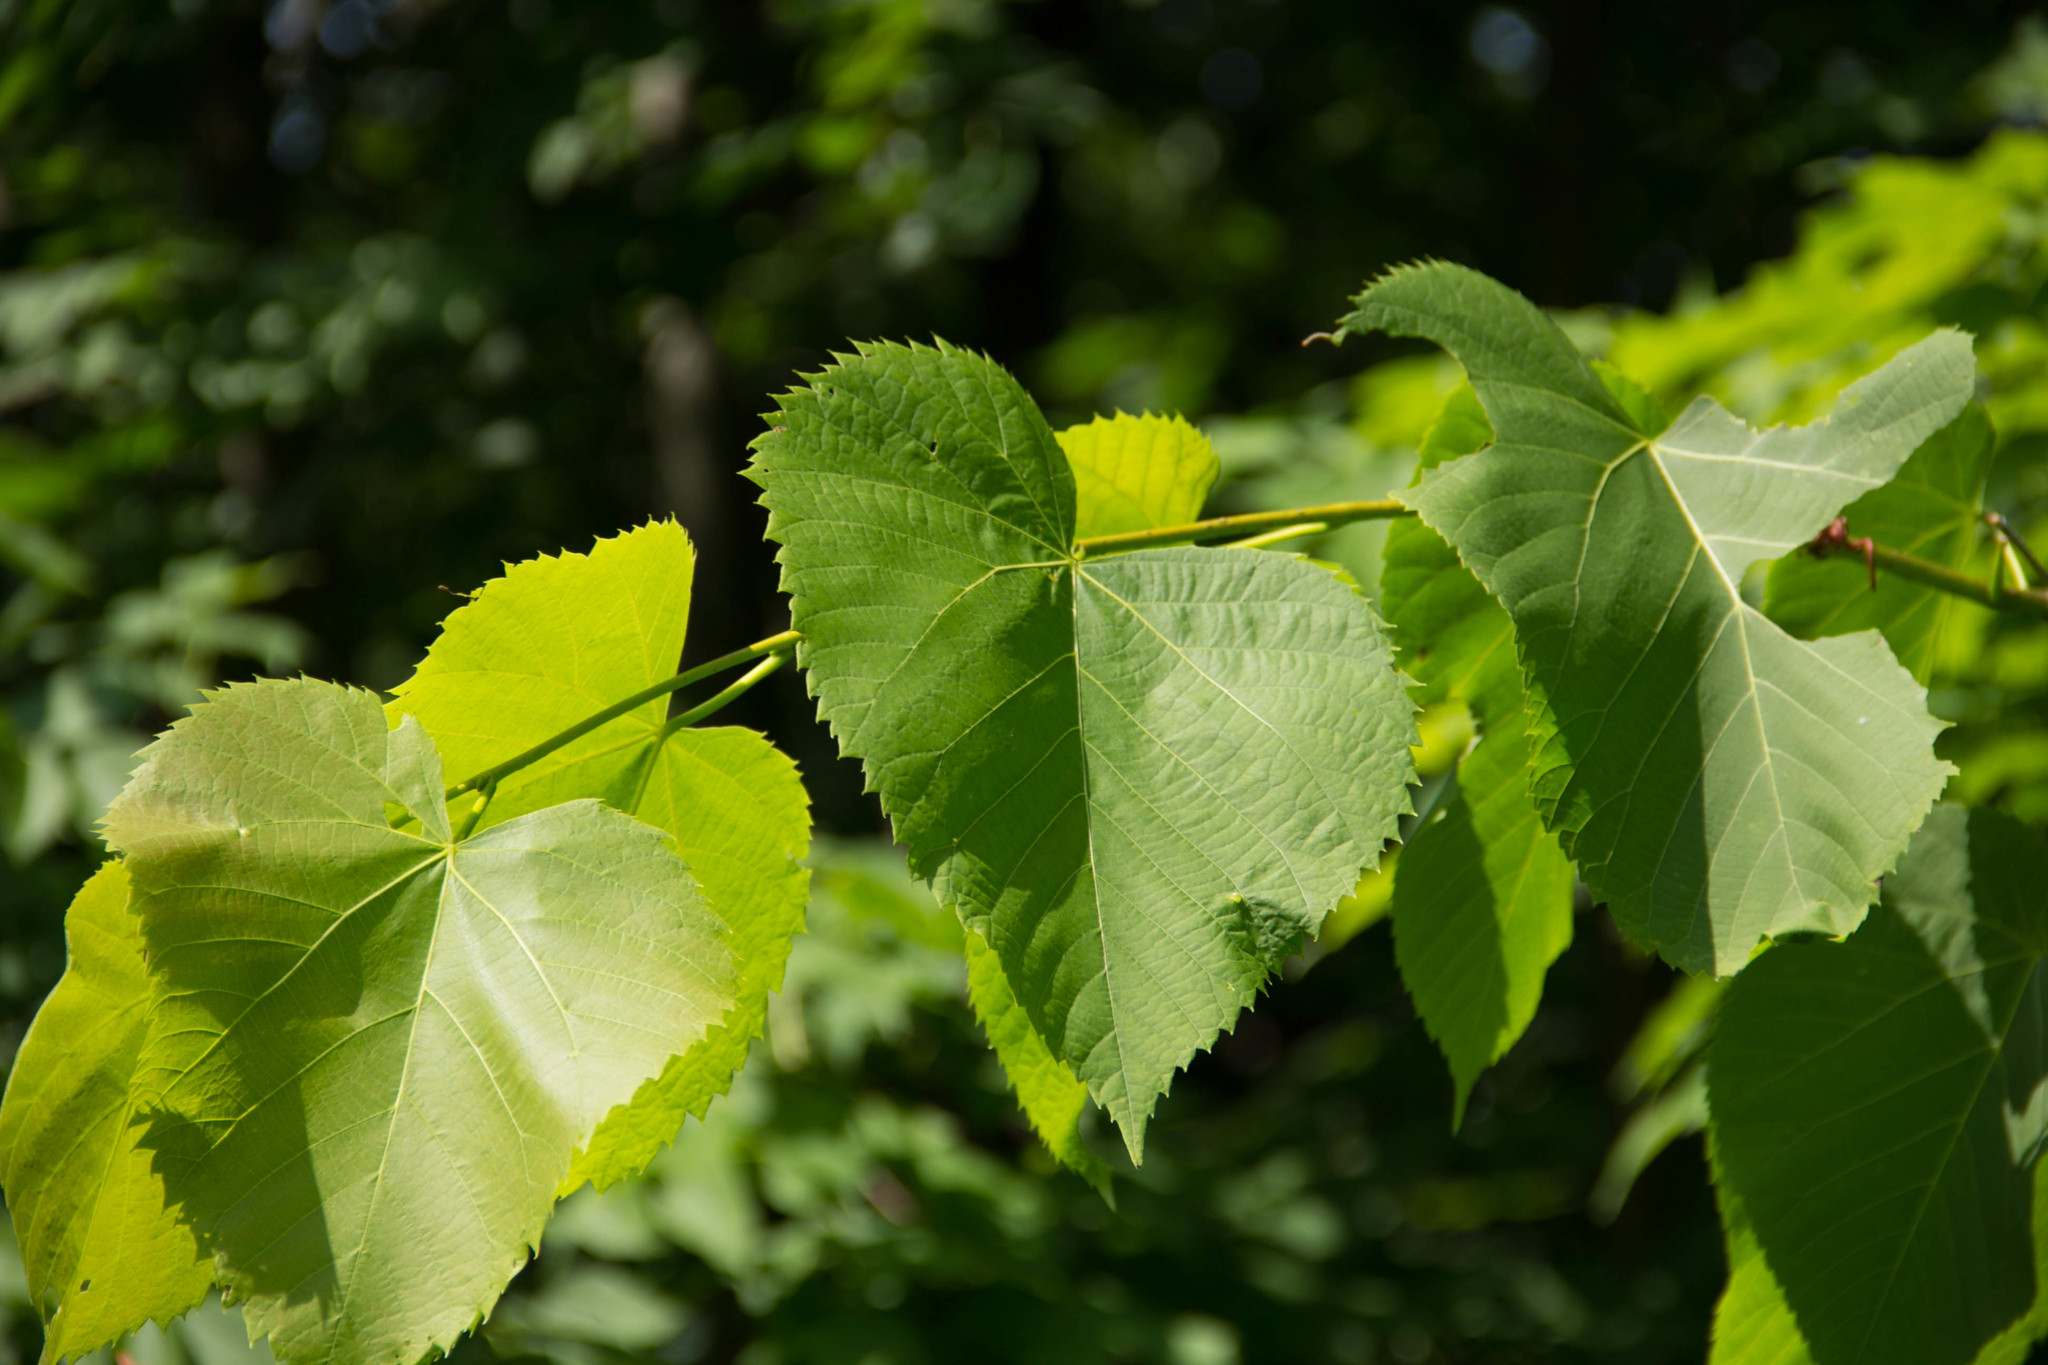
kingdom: Plantae
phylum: Tracheophyta
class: Magnoliopsida
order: Malvales
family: Malvaceae
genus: Tilia
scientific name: Tilia americana
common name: Basswood
